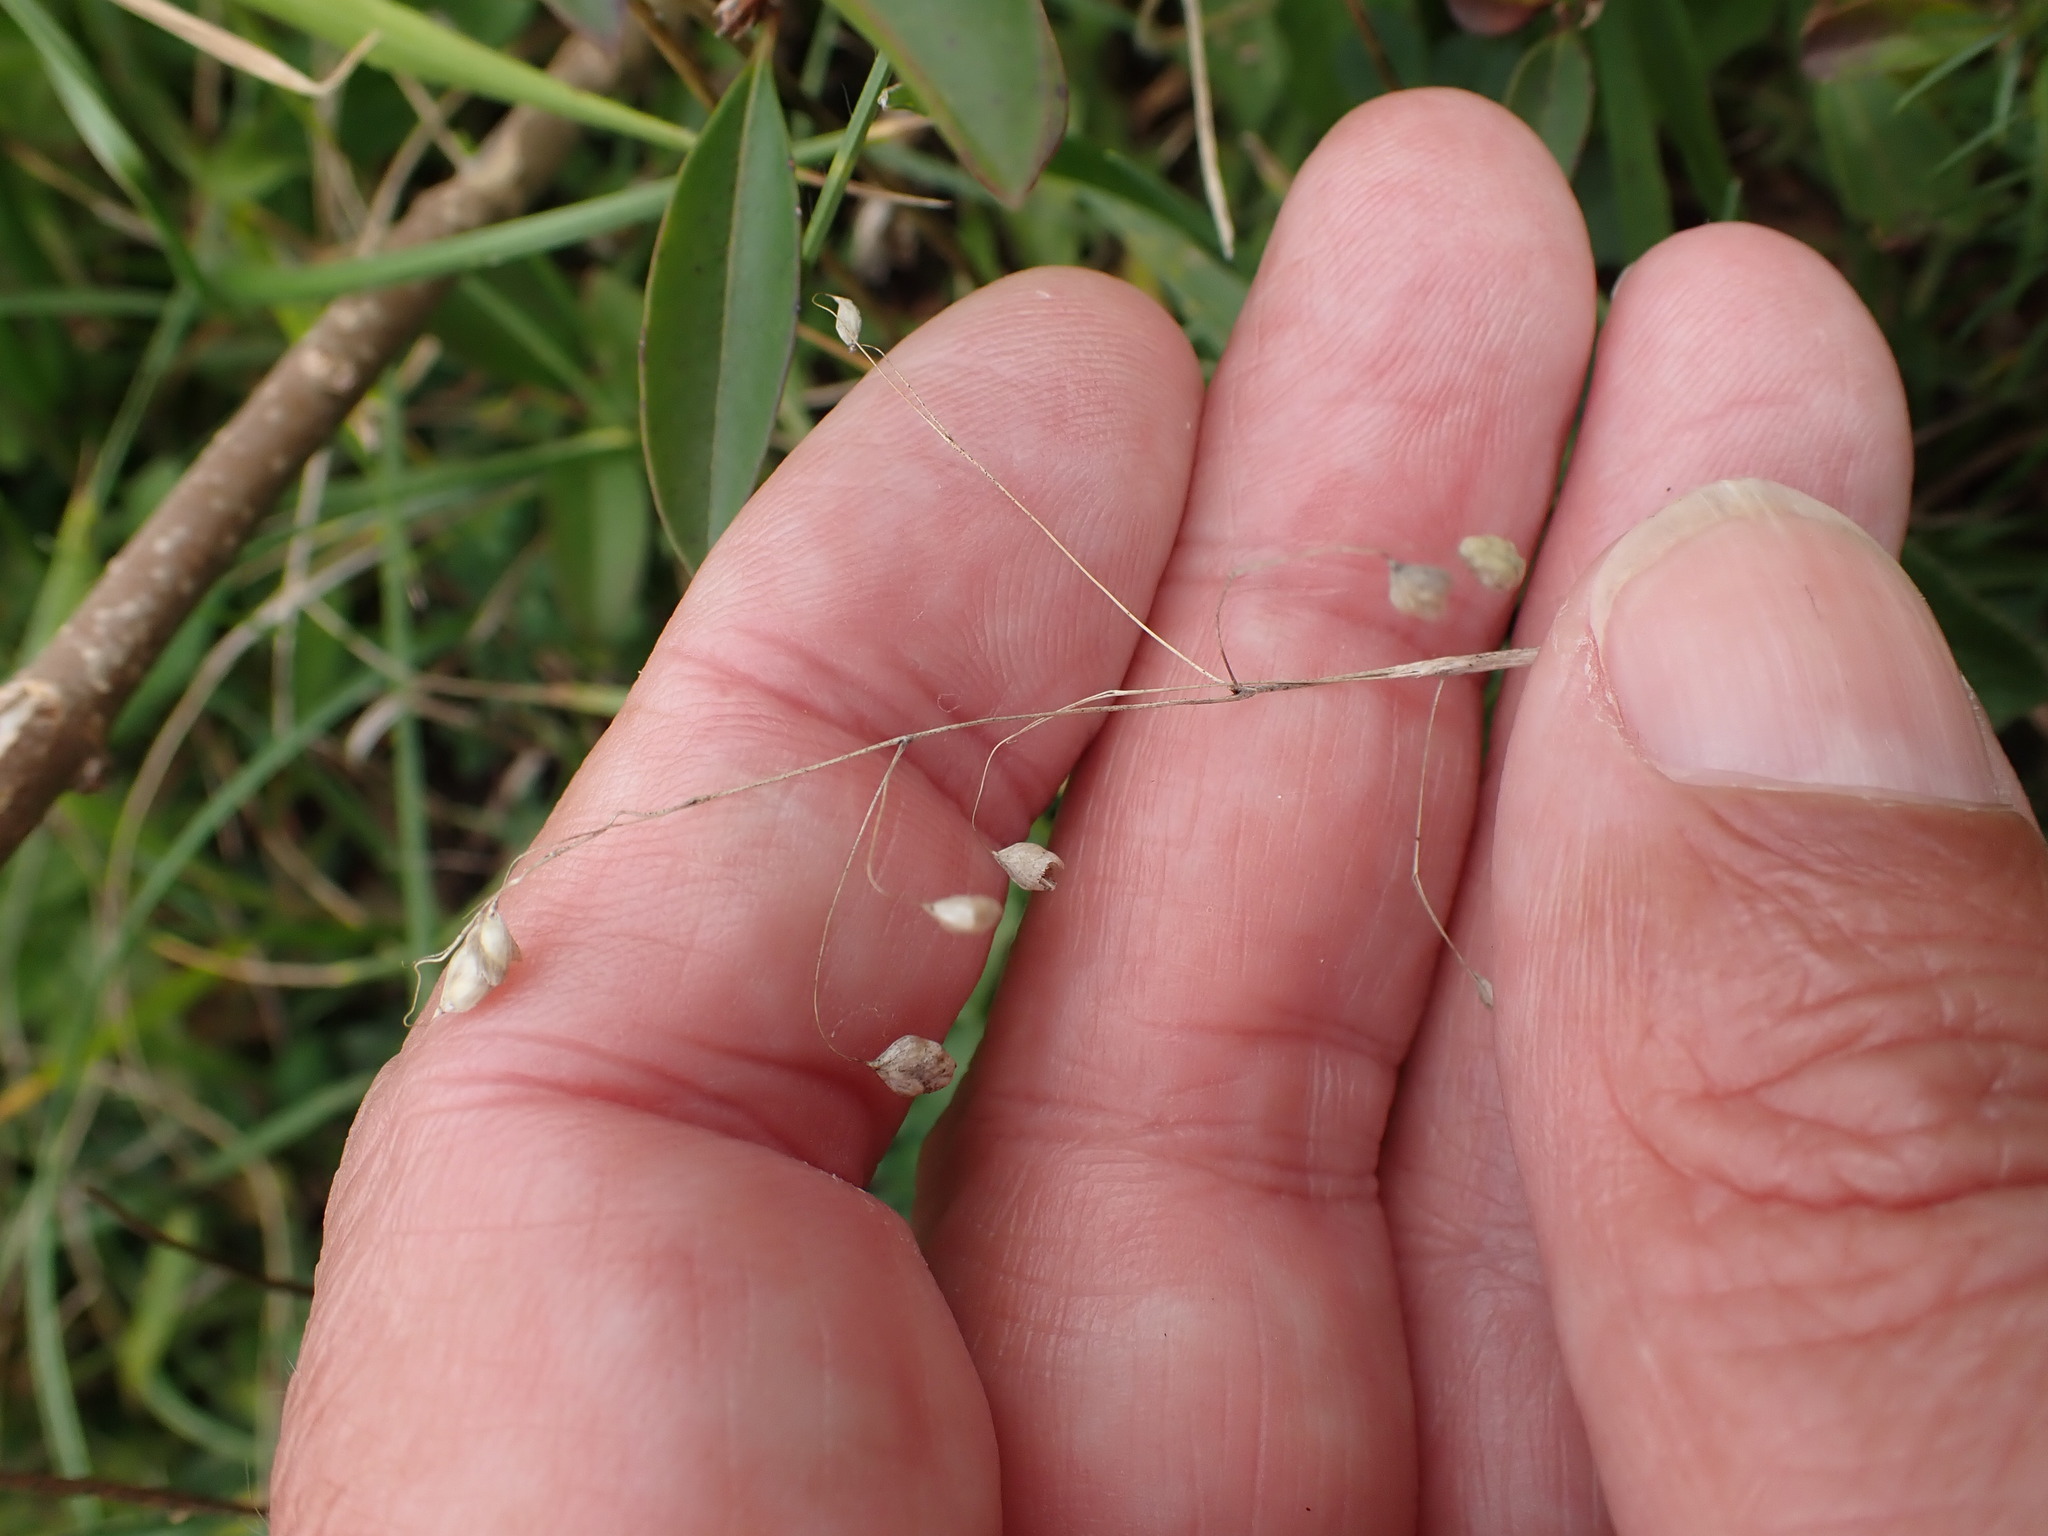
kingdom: Plantae
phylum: Tracheophyta
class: Liliopsida
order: Poales
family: Poaceae
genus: Briza
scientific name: Briza media
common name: Quaking grass
